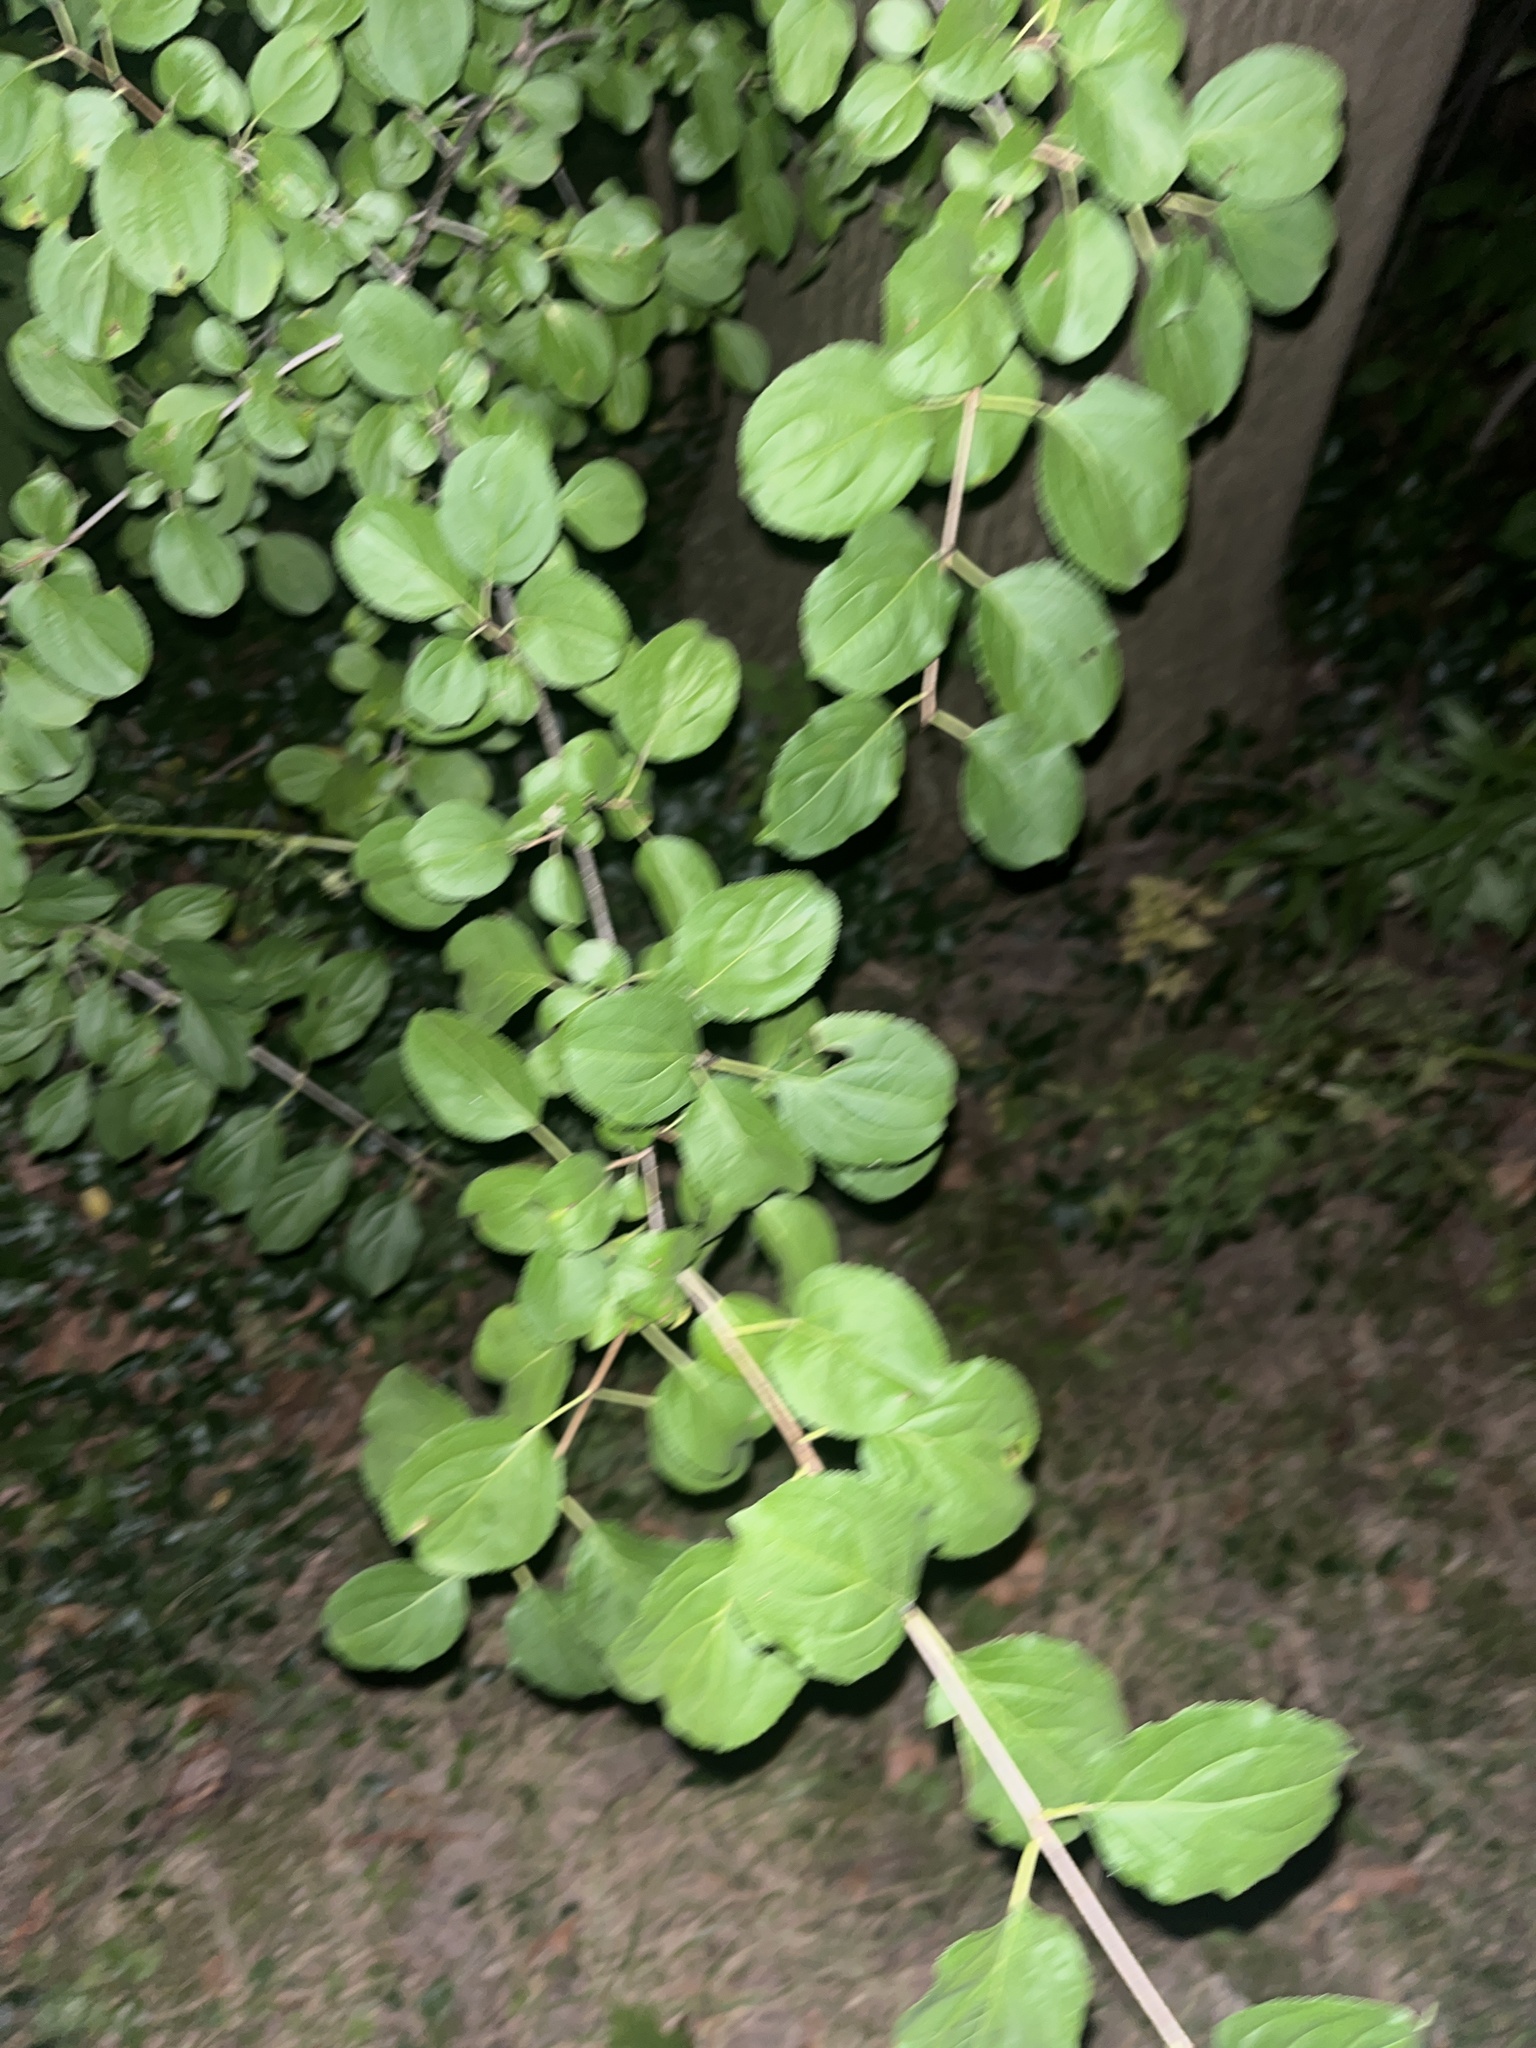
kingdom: Plantae
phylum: Tracheophyta
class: Magnoliopsida
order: Rosales
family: Rhamnaceae
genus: Rhamnus
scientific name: Rhamnus cathartica
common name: Common buckthorn
